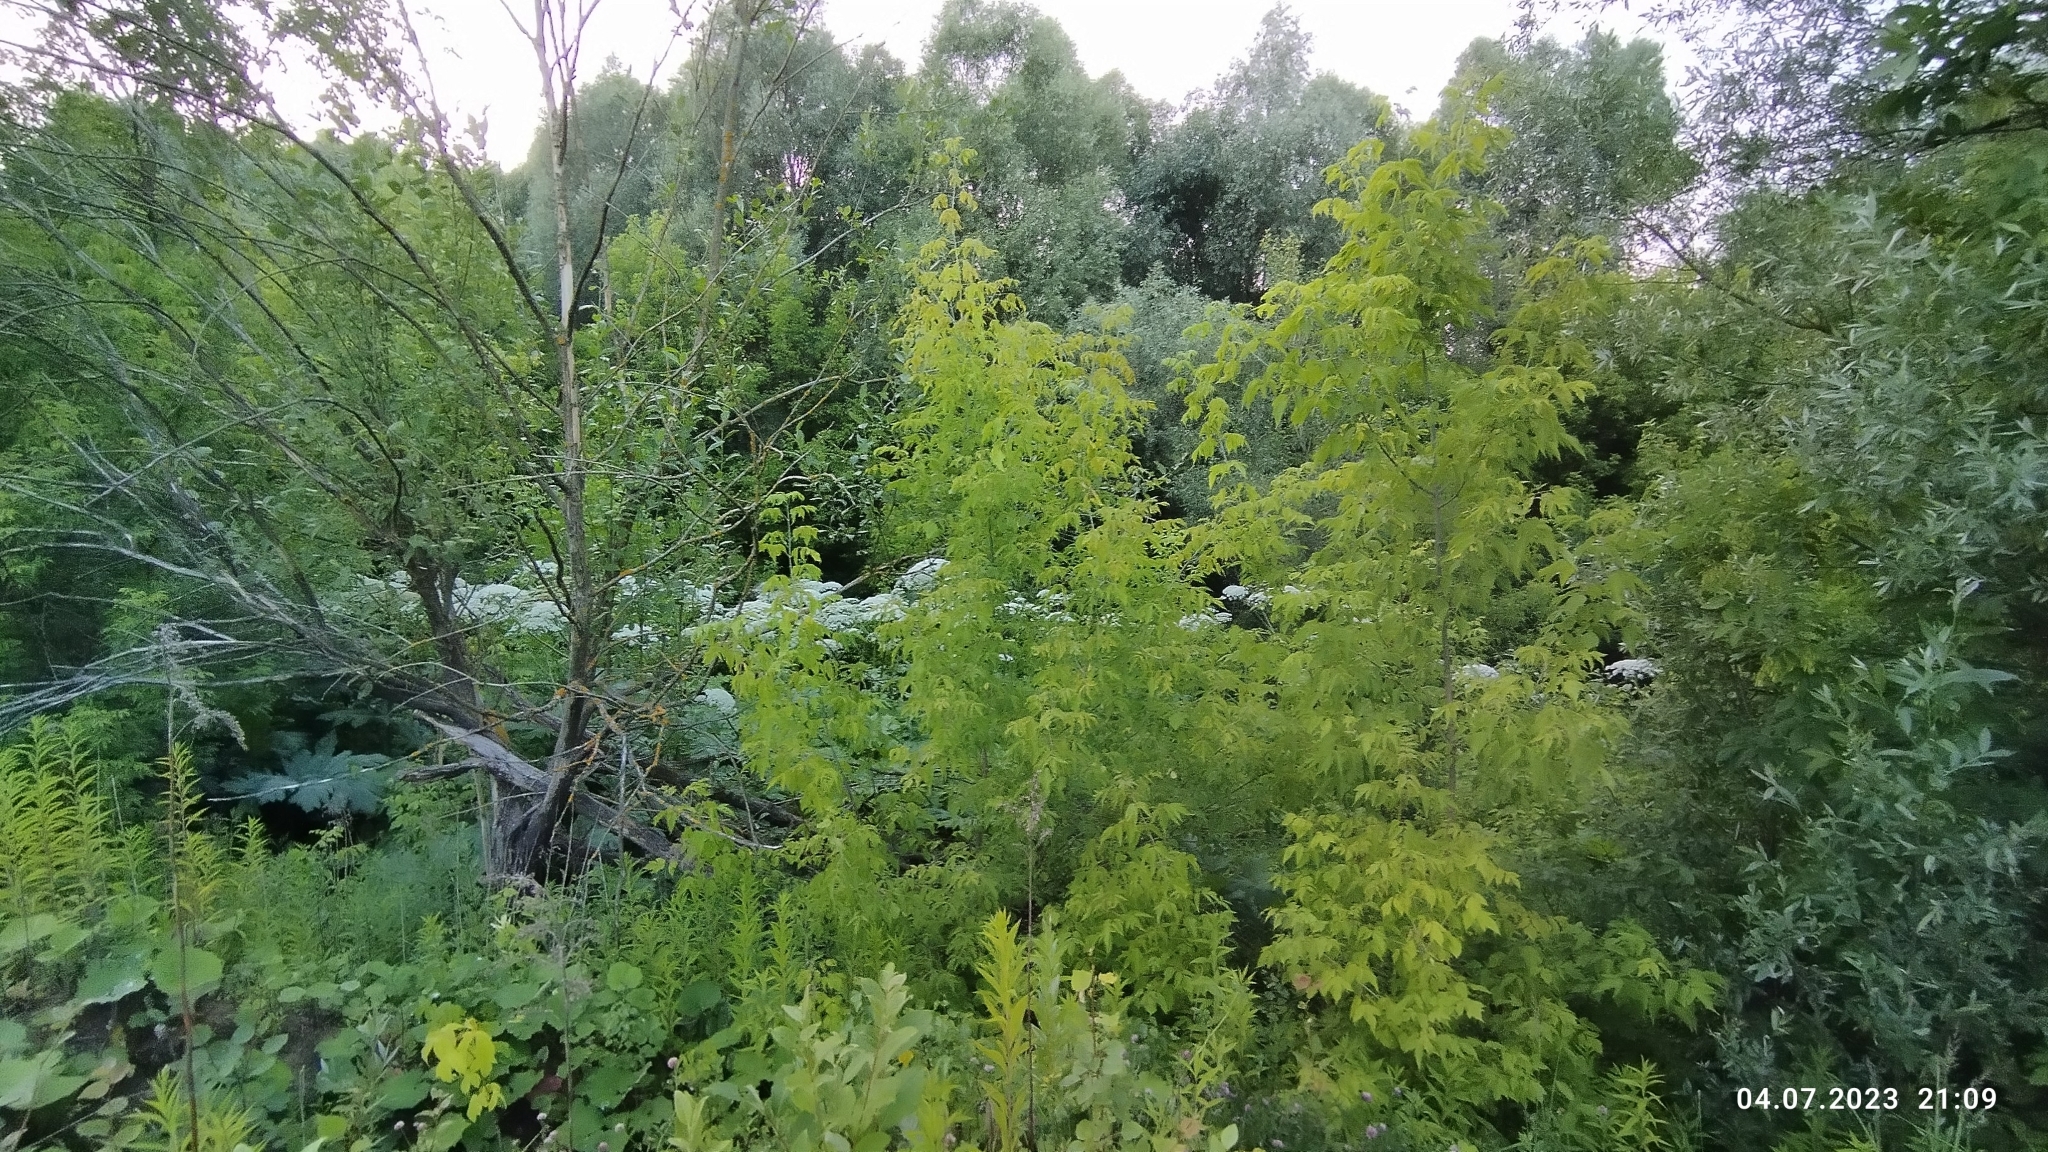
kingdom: Plantae
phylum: Tracheophyta
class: Magnoliopsida
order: Apiales
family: Apiaceae
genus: Heracleum
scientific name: Heracleum sosnowskyi
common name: Sosnowsky's hogweed
